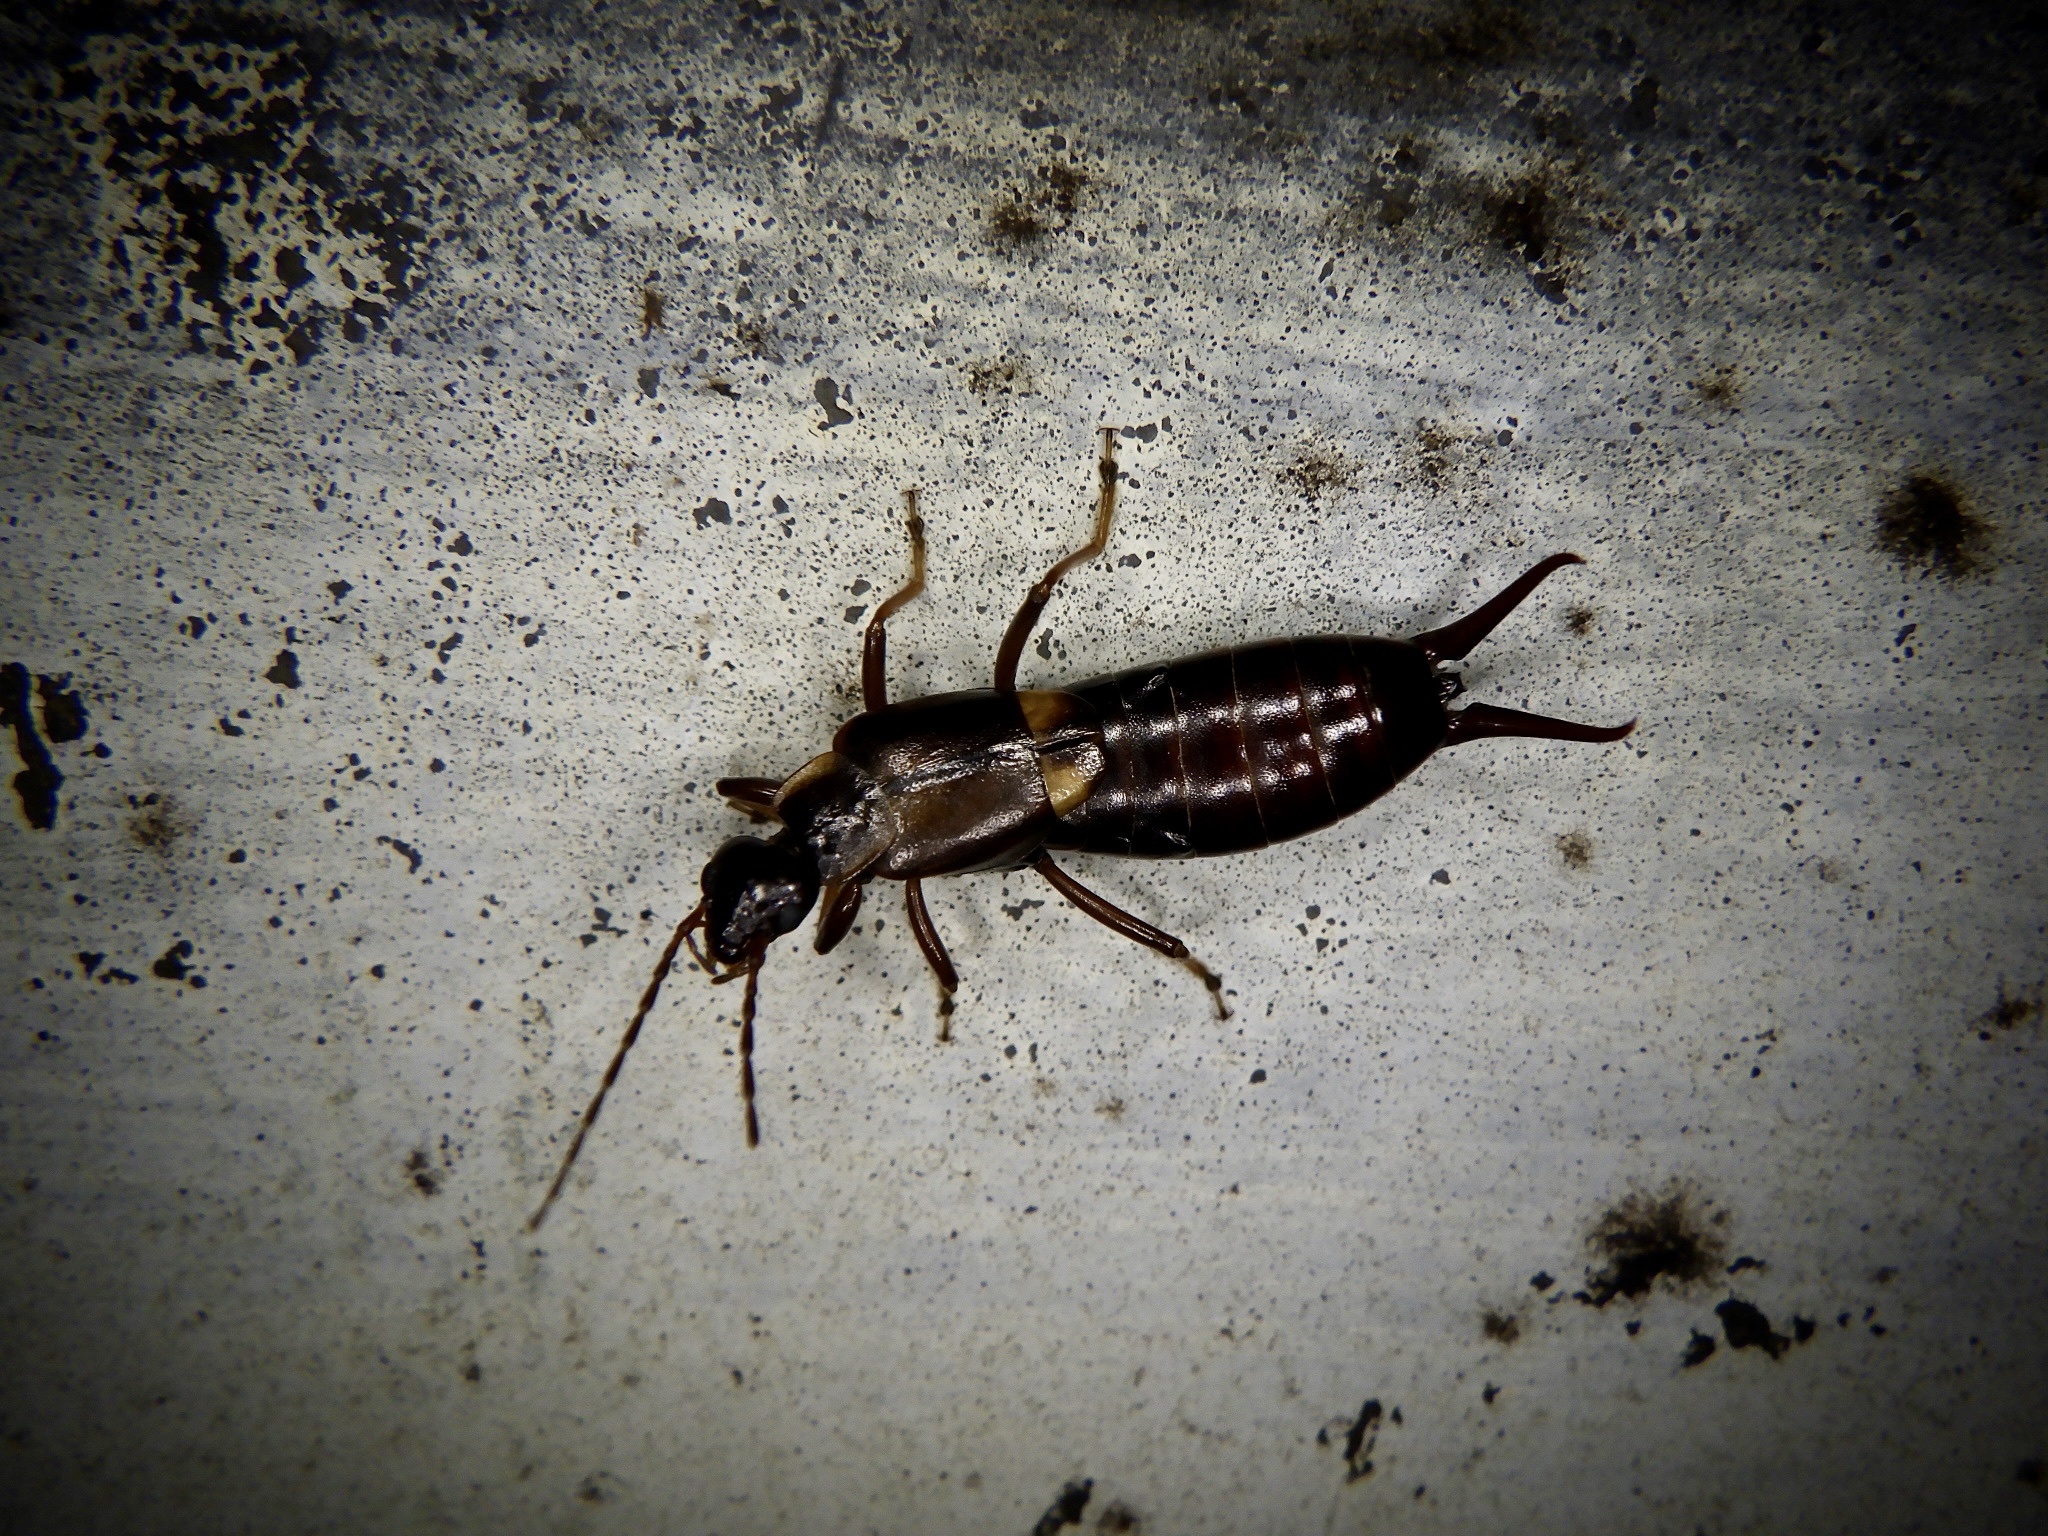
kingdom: Animalia
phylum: Arthropoda
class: Insecta
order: Dermaptera
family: Forficulidae
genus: Anechura
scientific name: Anechura harmandi
